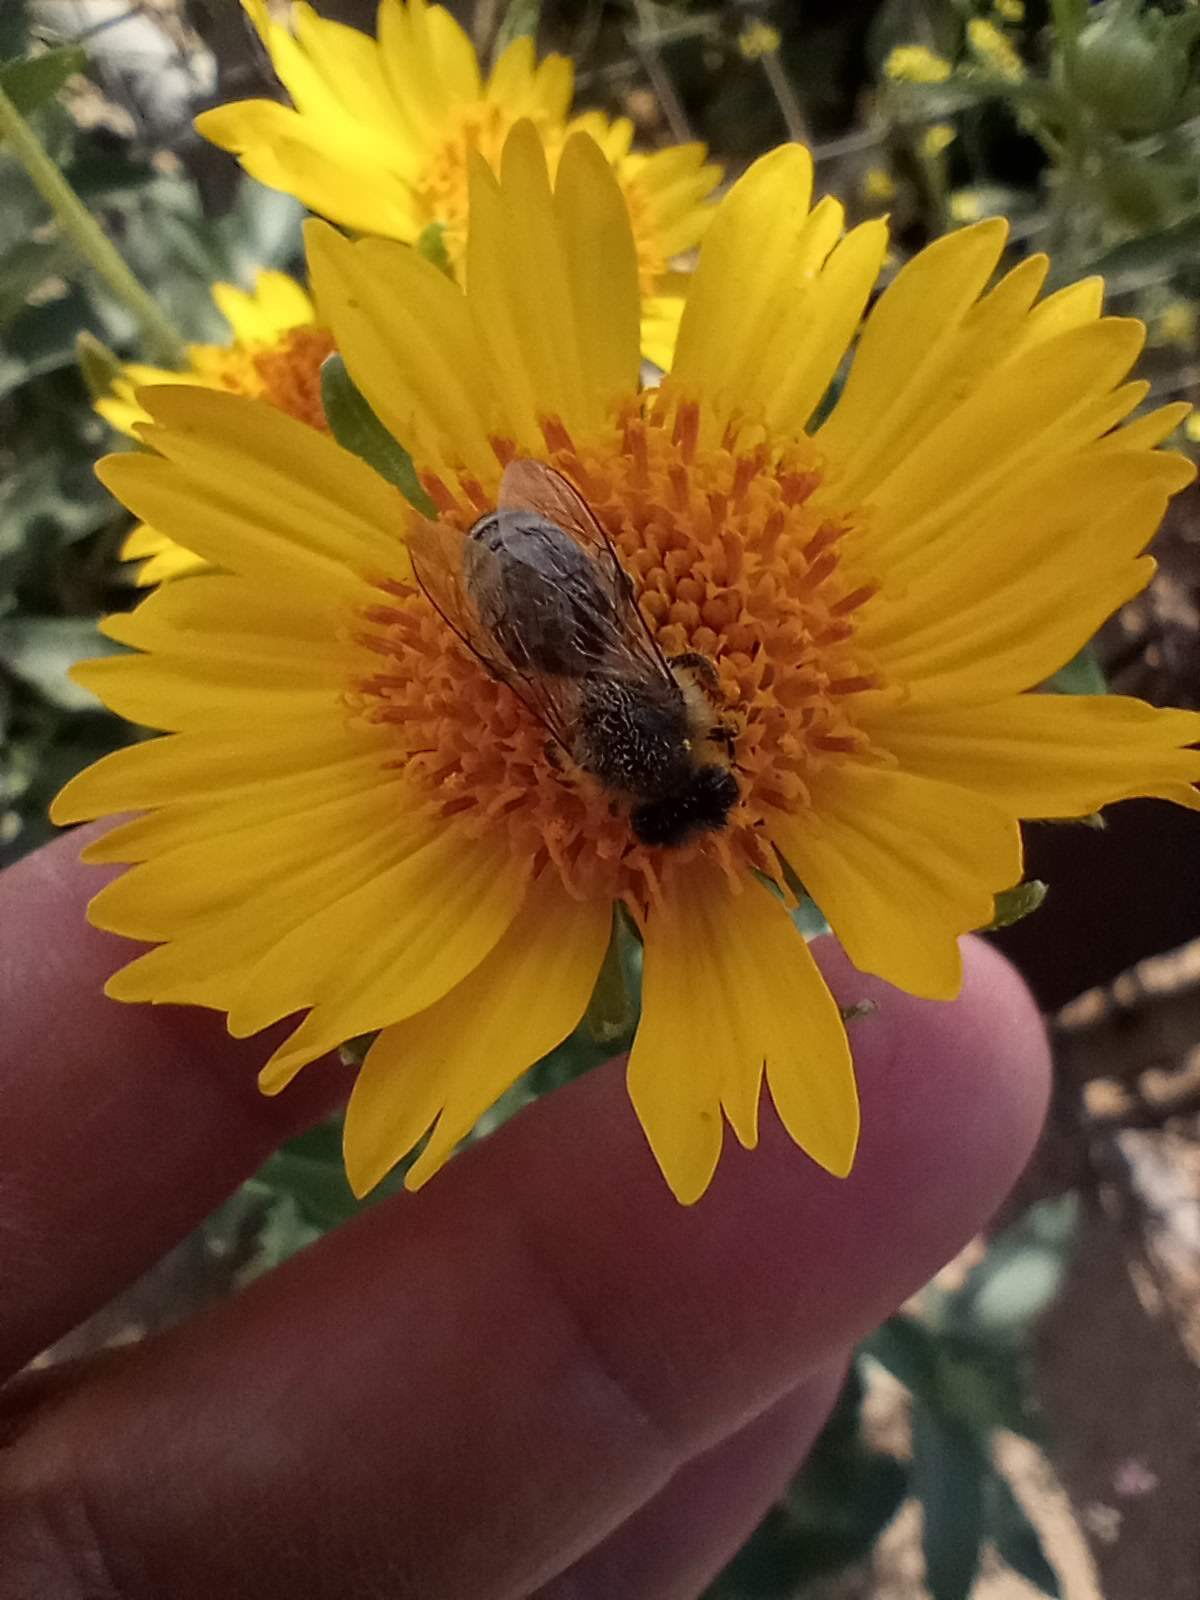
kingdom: Animalia
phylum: Arthropoda
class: Insecta
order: Hymenoptera
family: Apidae
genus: Apis
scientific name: Apis mellifera
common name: Honey bee
